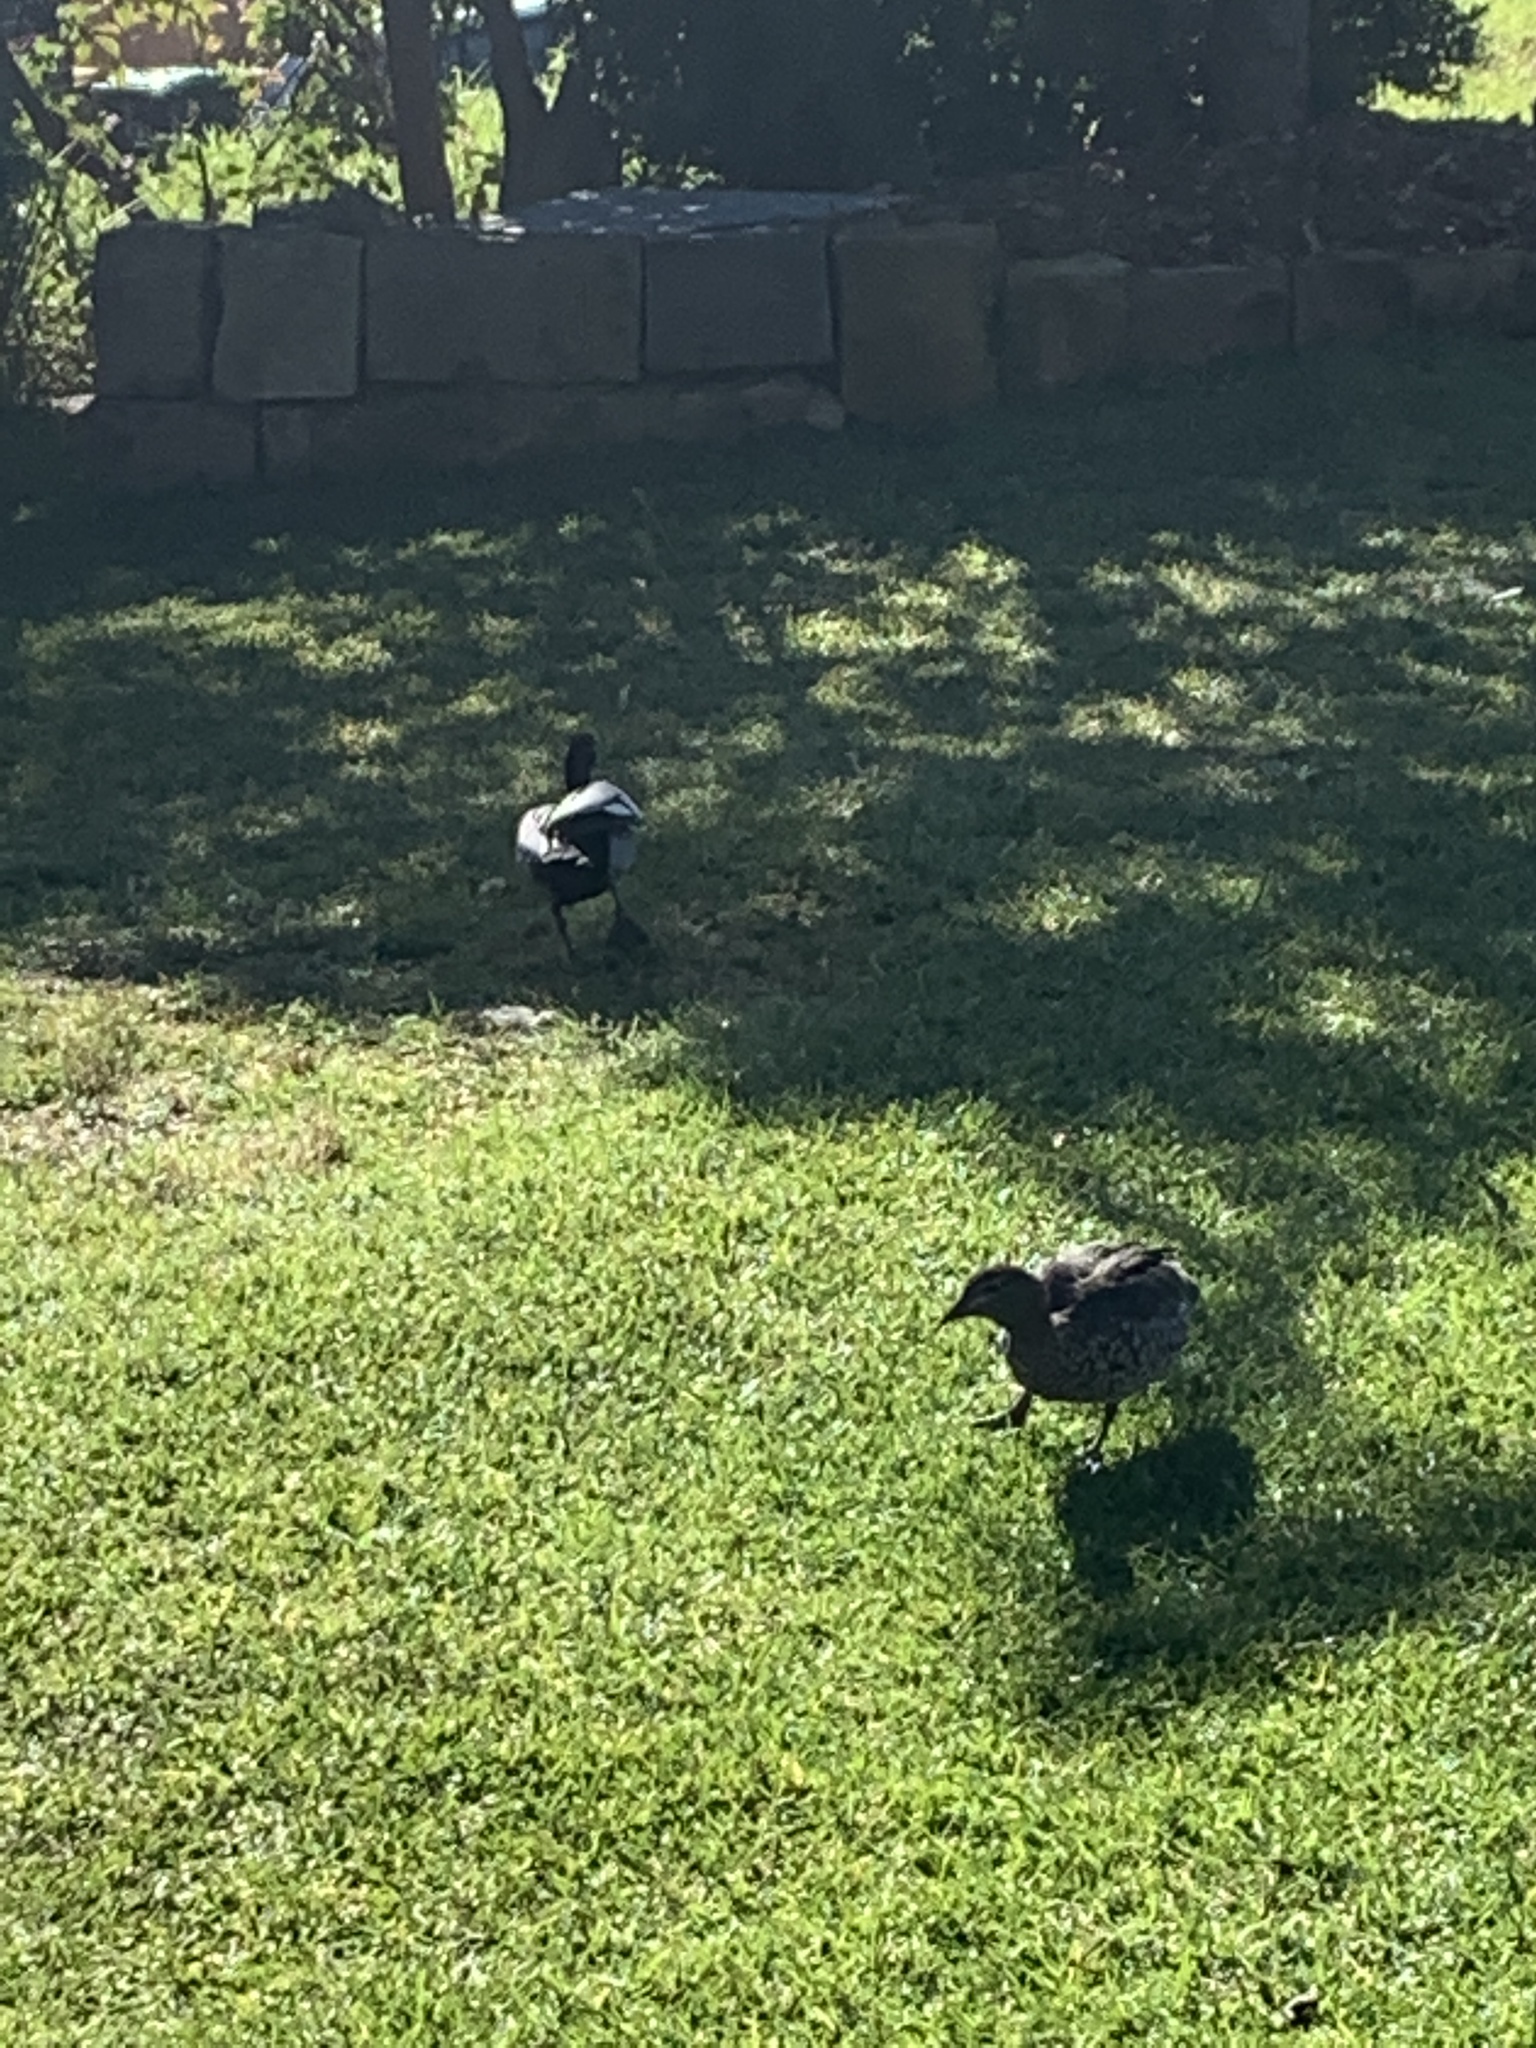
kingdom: Animalia
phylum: Chordata
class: Aves
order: Anseriformes
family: Anatidae
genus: Chenonetta
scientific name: Chenonetta jubata
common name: Maned duck
